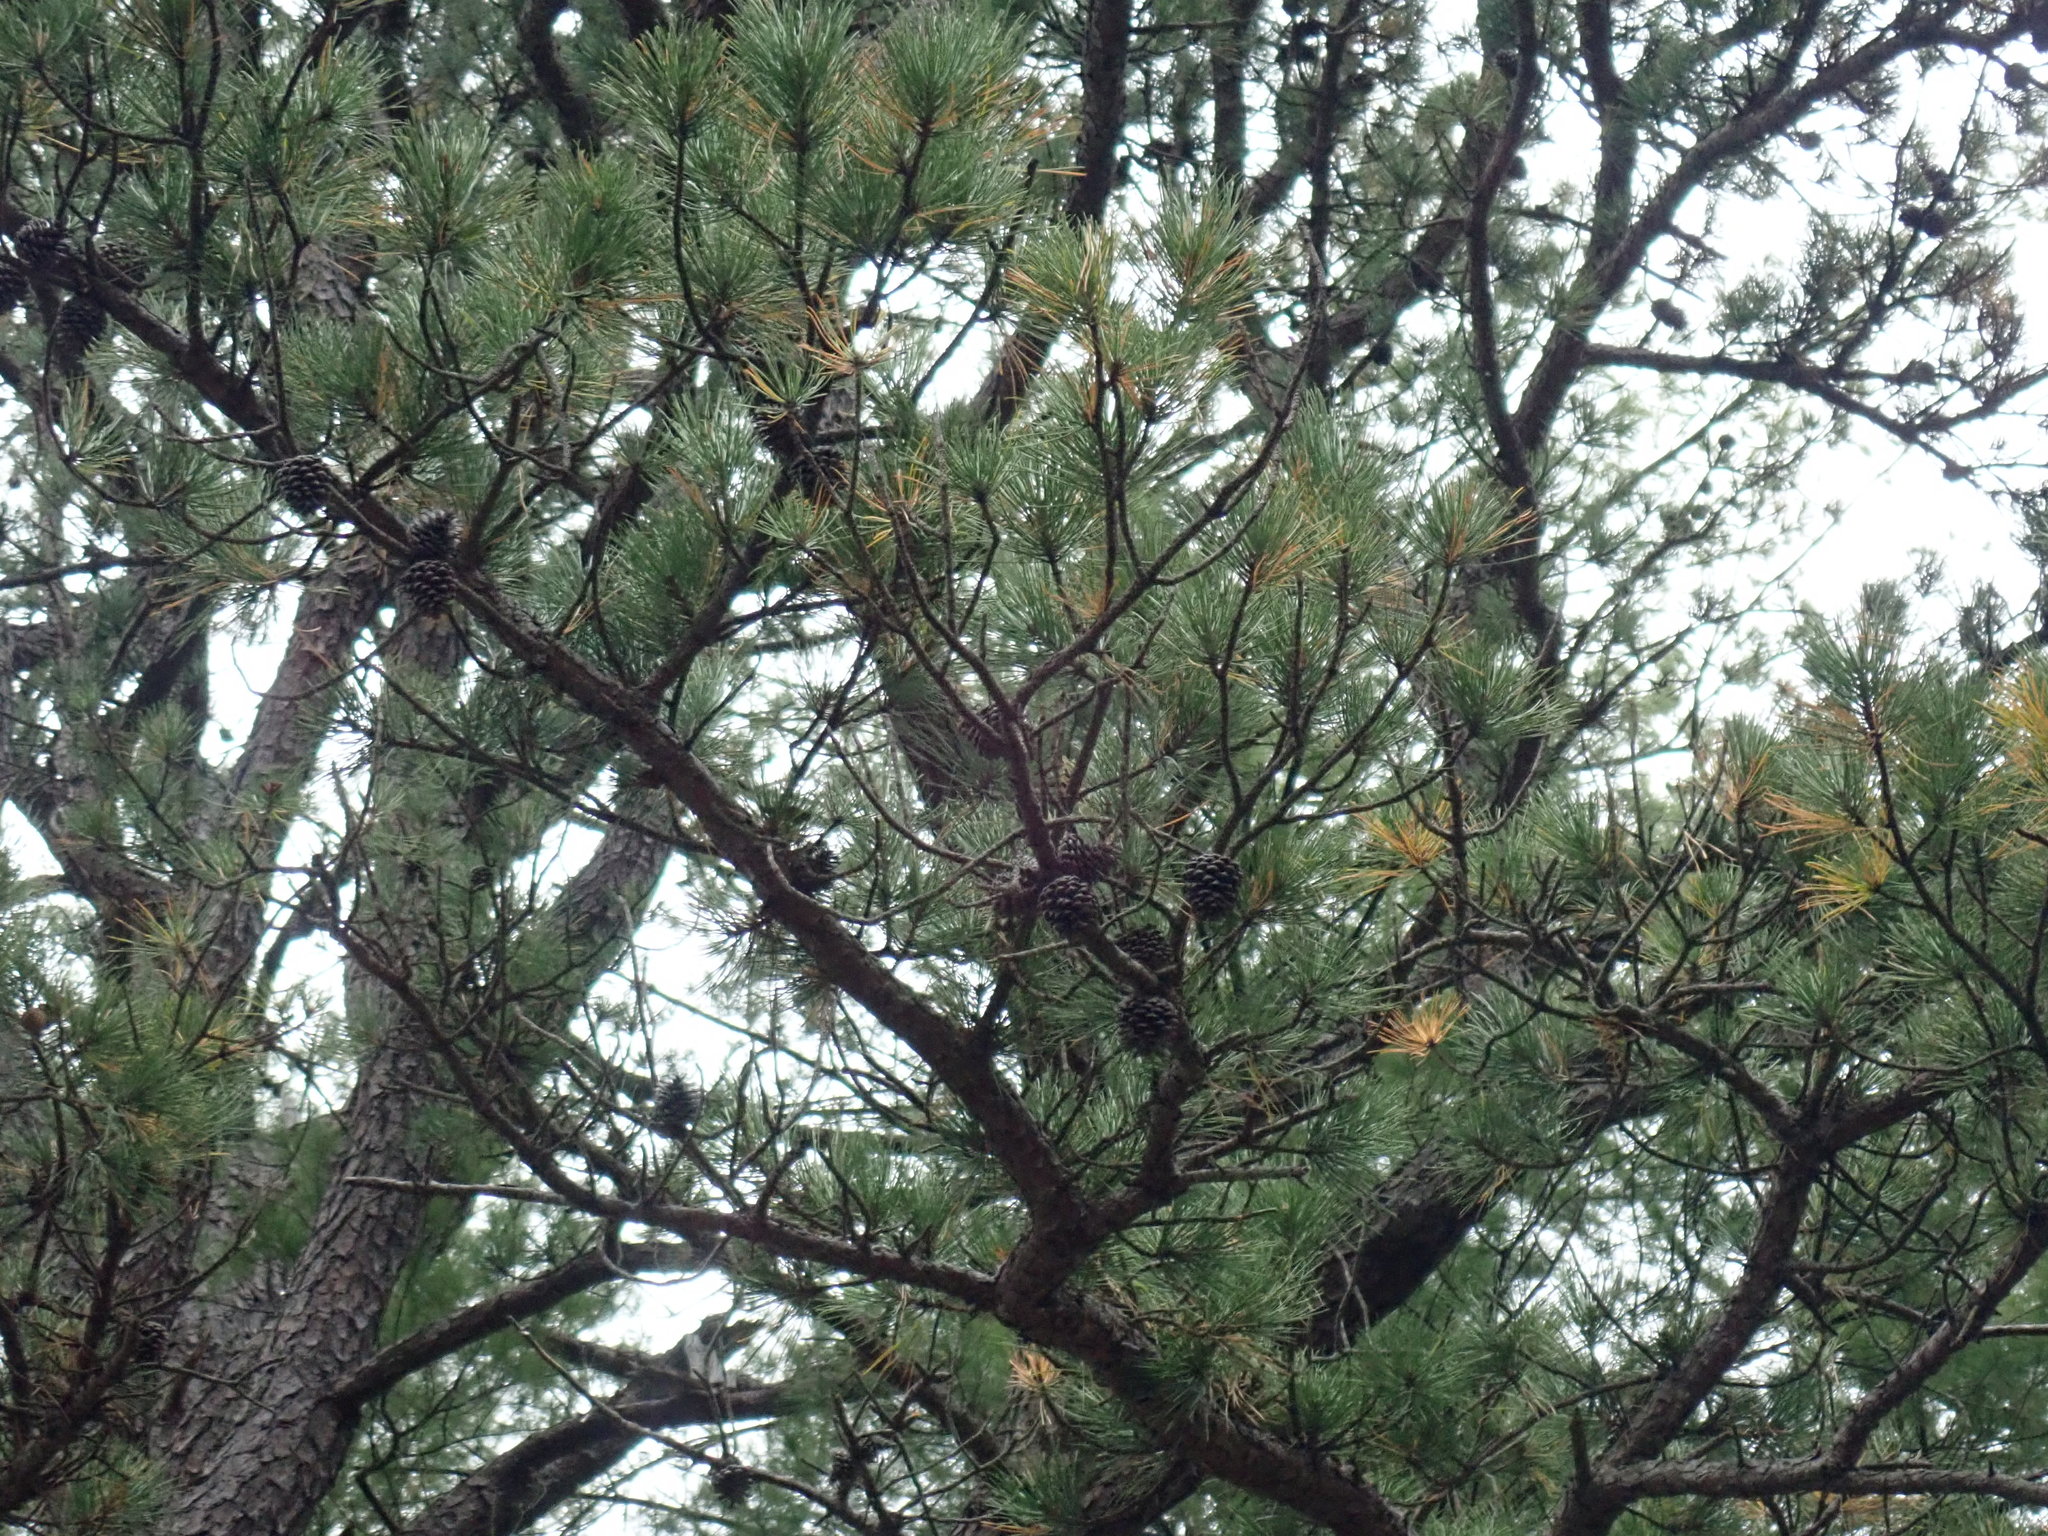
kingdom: Plantae
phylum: Tracheophyta
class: Pinopsida
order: Pinales
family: Pinaceae
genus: Pinus
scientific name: Pinus rigida
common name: Pitch pine
